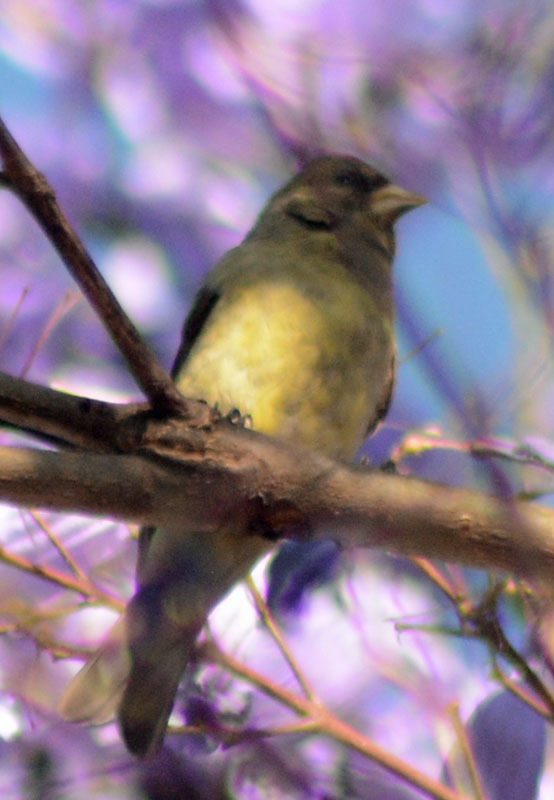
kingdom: Animalia
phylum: Chordata
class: Aves
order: Passeriformes
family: Fringillidae
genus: Spinus
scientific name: Spinus psaltria
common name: Lesser goldfinch
